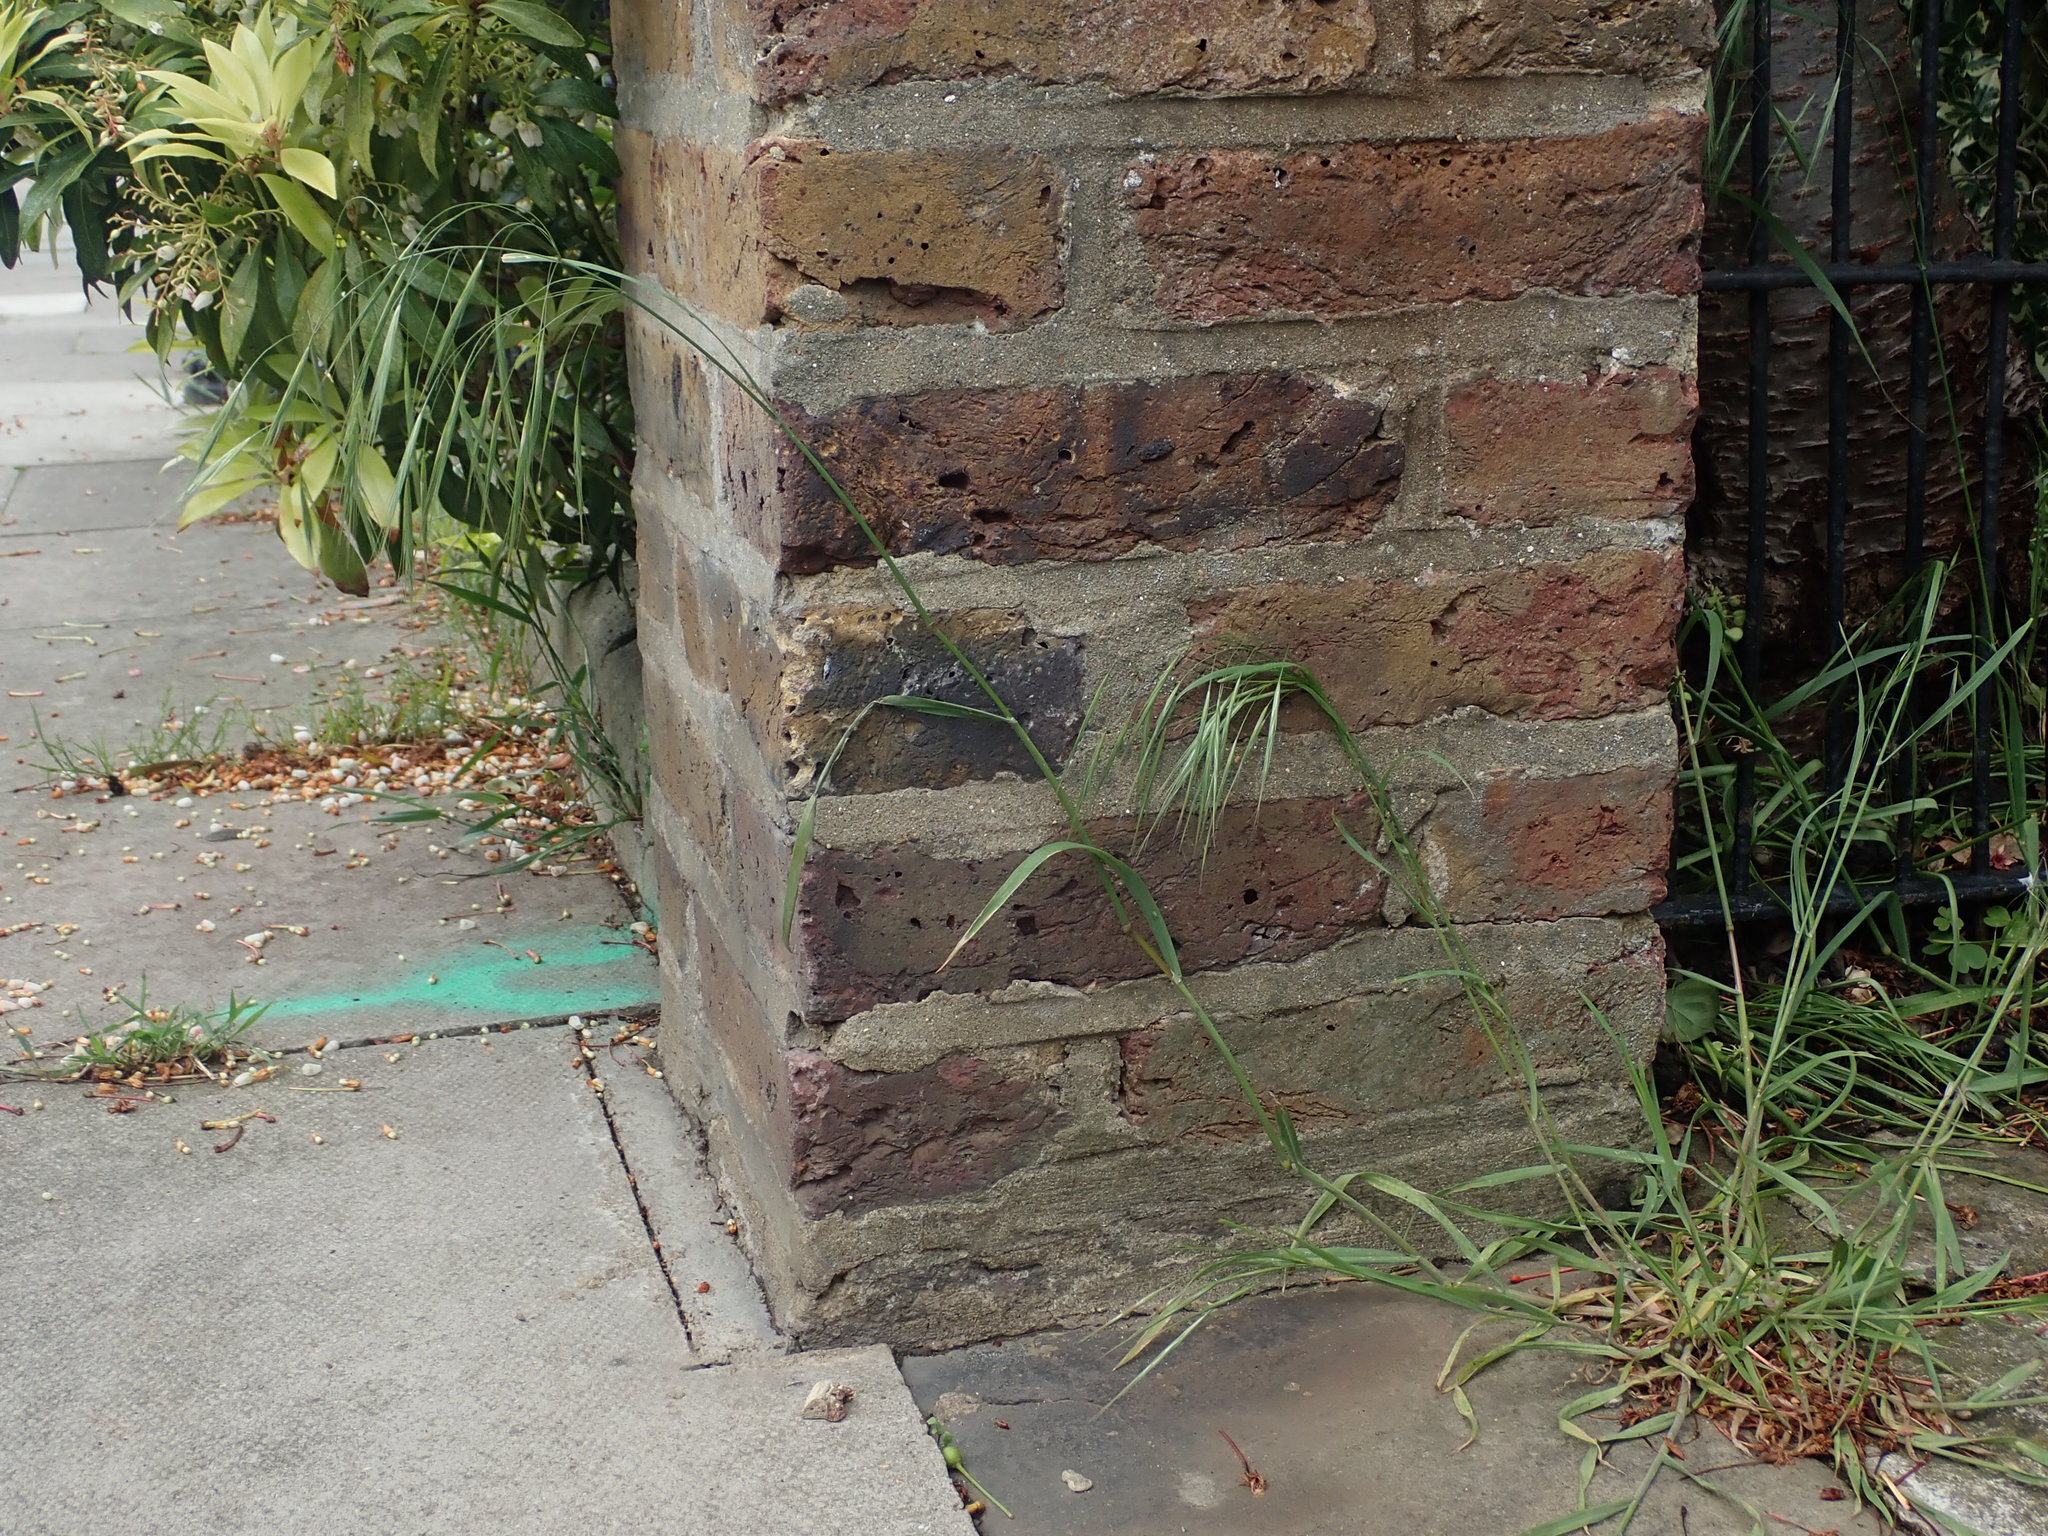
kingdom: Plantae
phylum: Tracheophyta
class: Liliopsida
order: Poales
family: Poaceae
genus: Bromus
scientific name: Bromus sterilis
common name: Poverty brome
